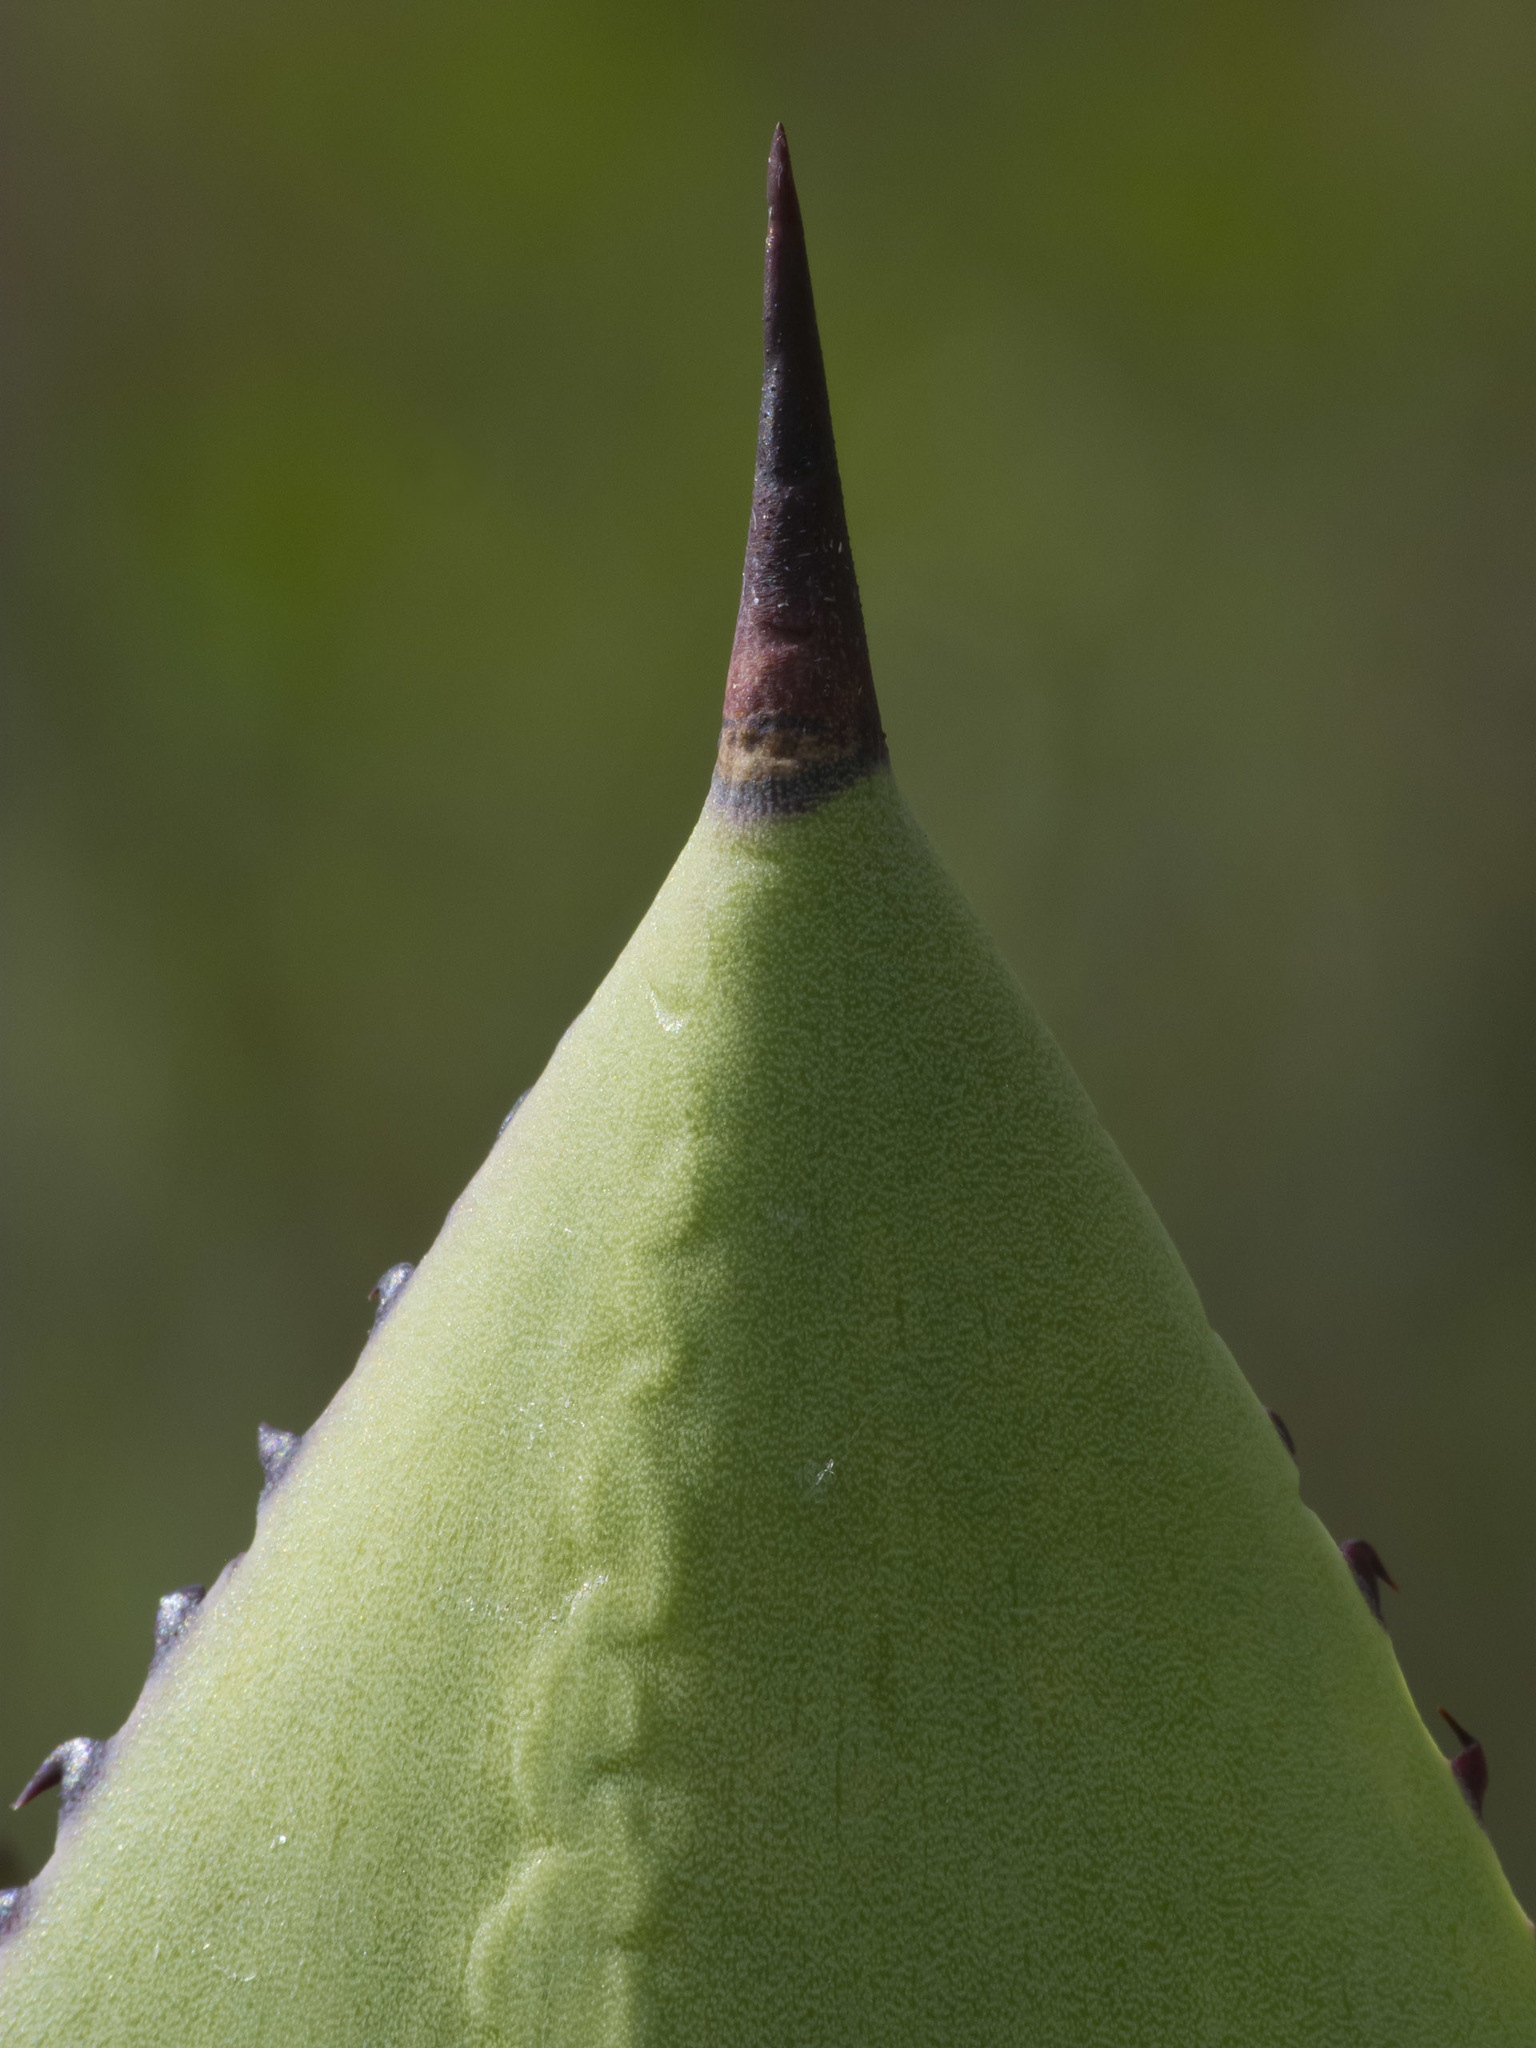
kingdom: Plantae
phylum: Tracheophyta
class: Liliopsida
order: Asparagales
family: Asparagaceae
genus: Agave
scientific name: Agave sylvesteriana
